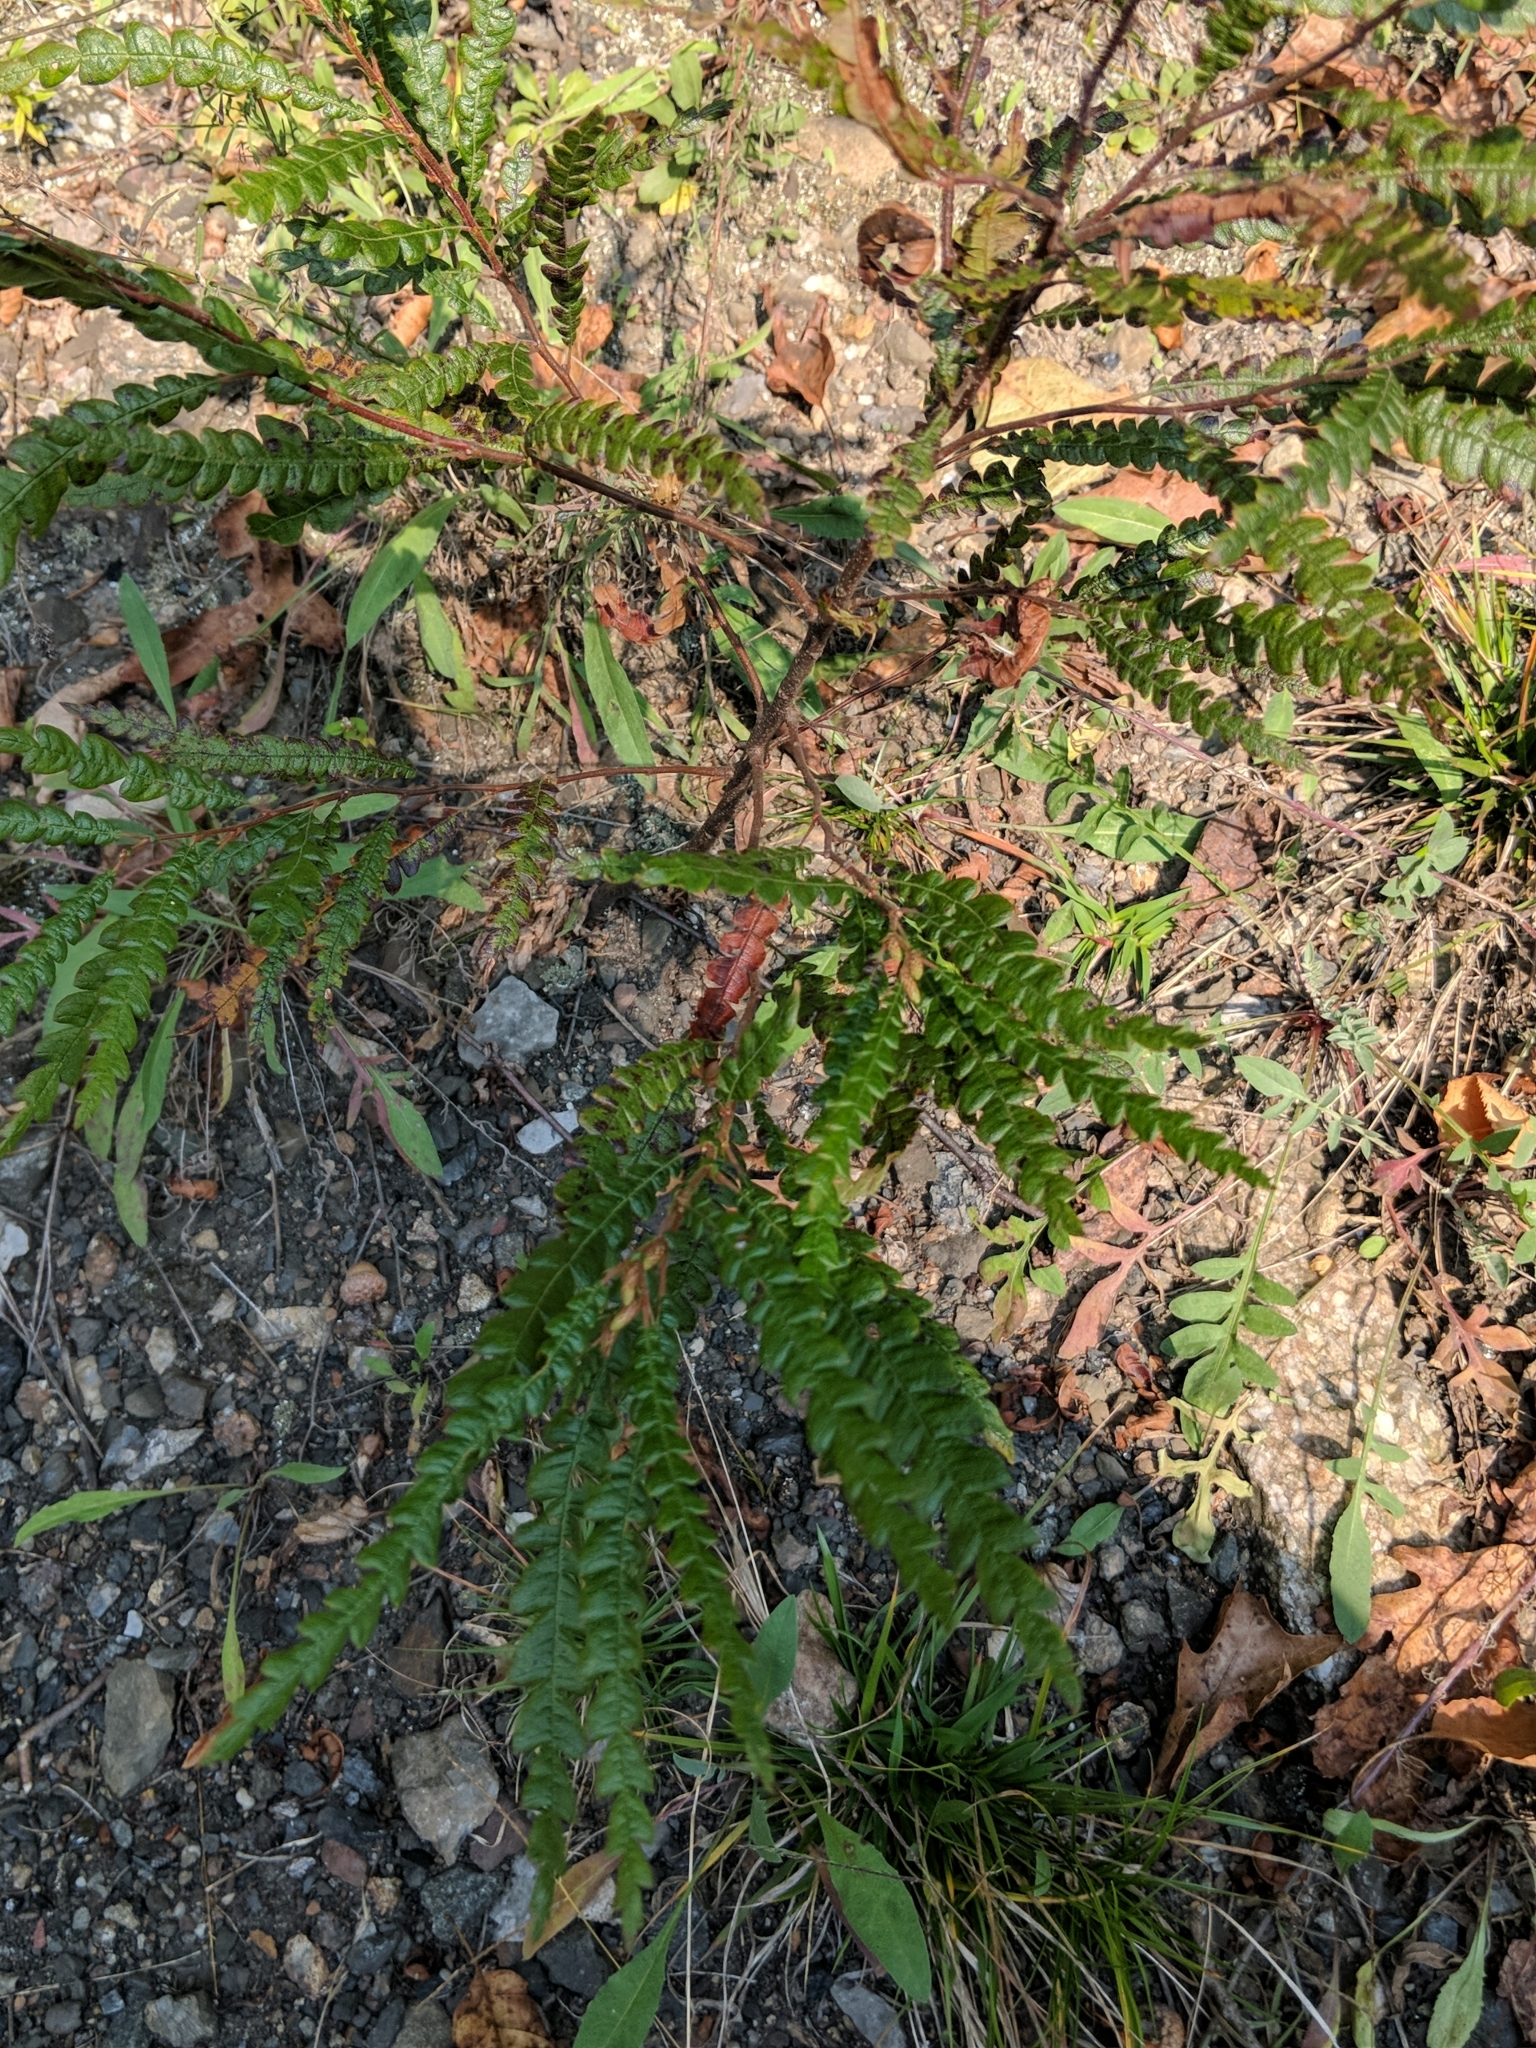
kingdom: Plantae
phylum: Tracheophyta
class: Magnoliopsida
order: Fagales
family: Myricaceae
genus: Comptonia
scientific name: Comptonia peregrina
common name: Sweet-fern
